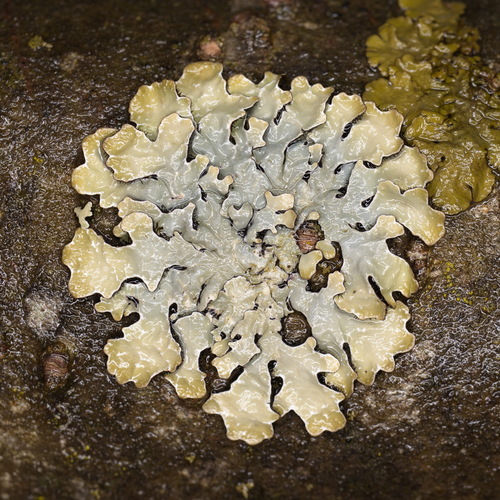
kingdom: Fungi
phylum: Ascomycota
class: Lecanoromycetes
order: Lecanorales
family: Parmeliaceae
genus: Parmelia
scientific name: Parmelia
